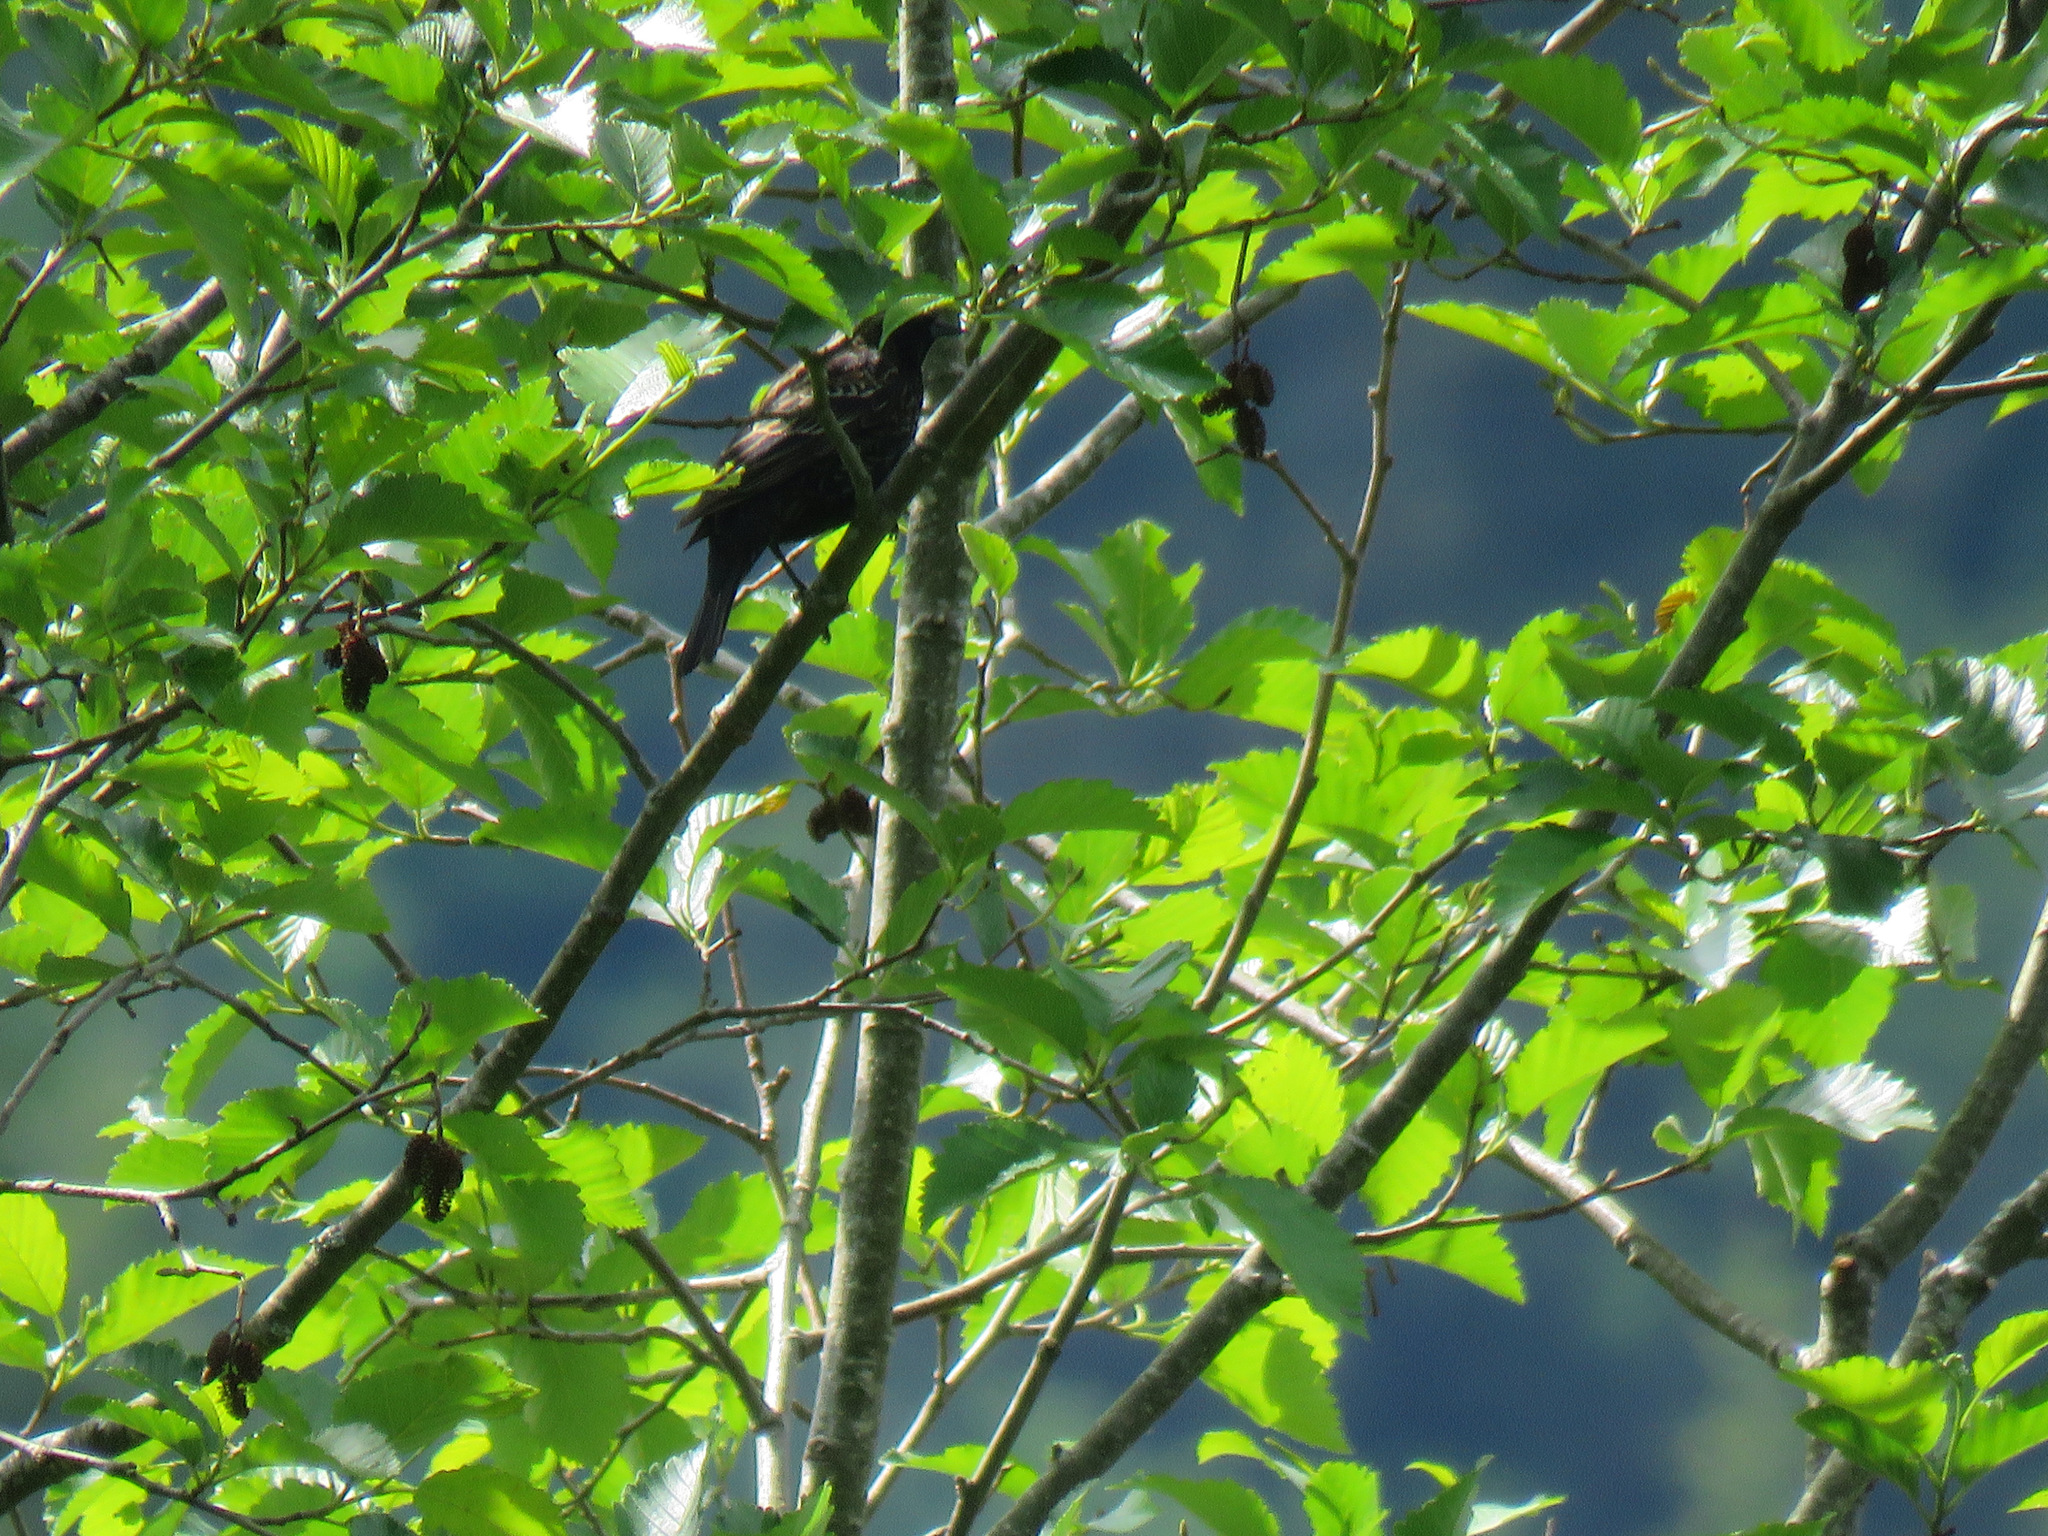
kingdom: Animalia
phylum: Chordata
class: Aves
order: Passeriformes
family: Icteridae
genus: Agelaius
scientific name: Agelaius phoeniceus
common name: Red-winged blackbird
